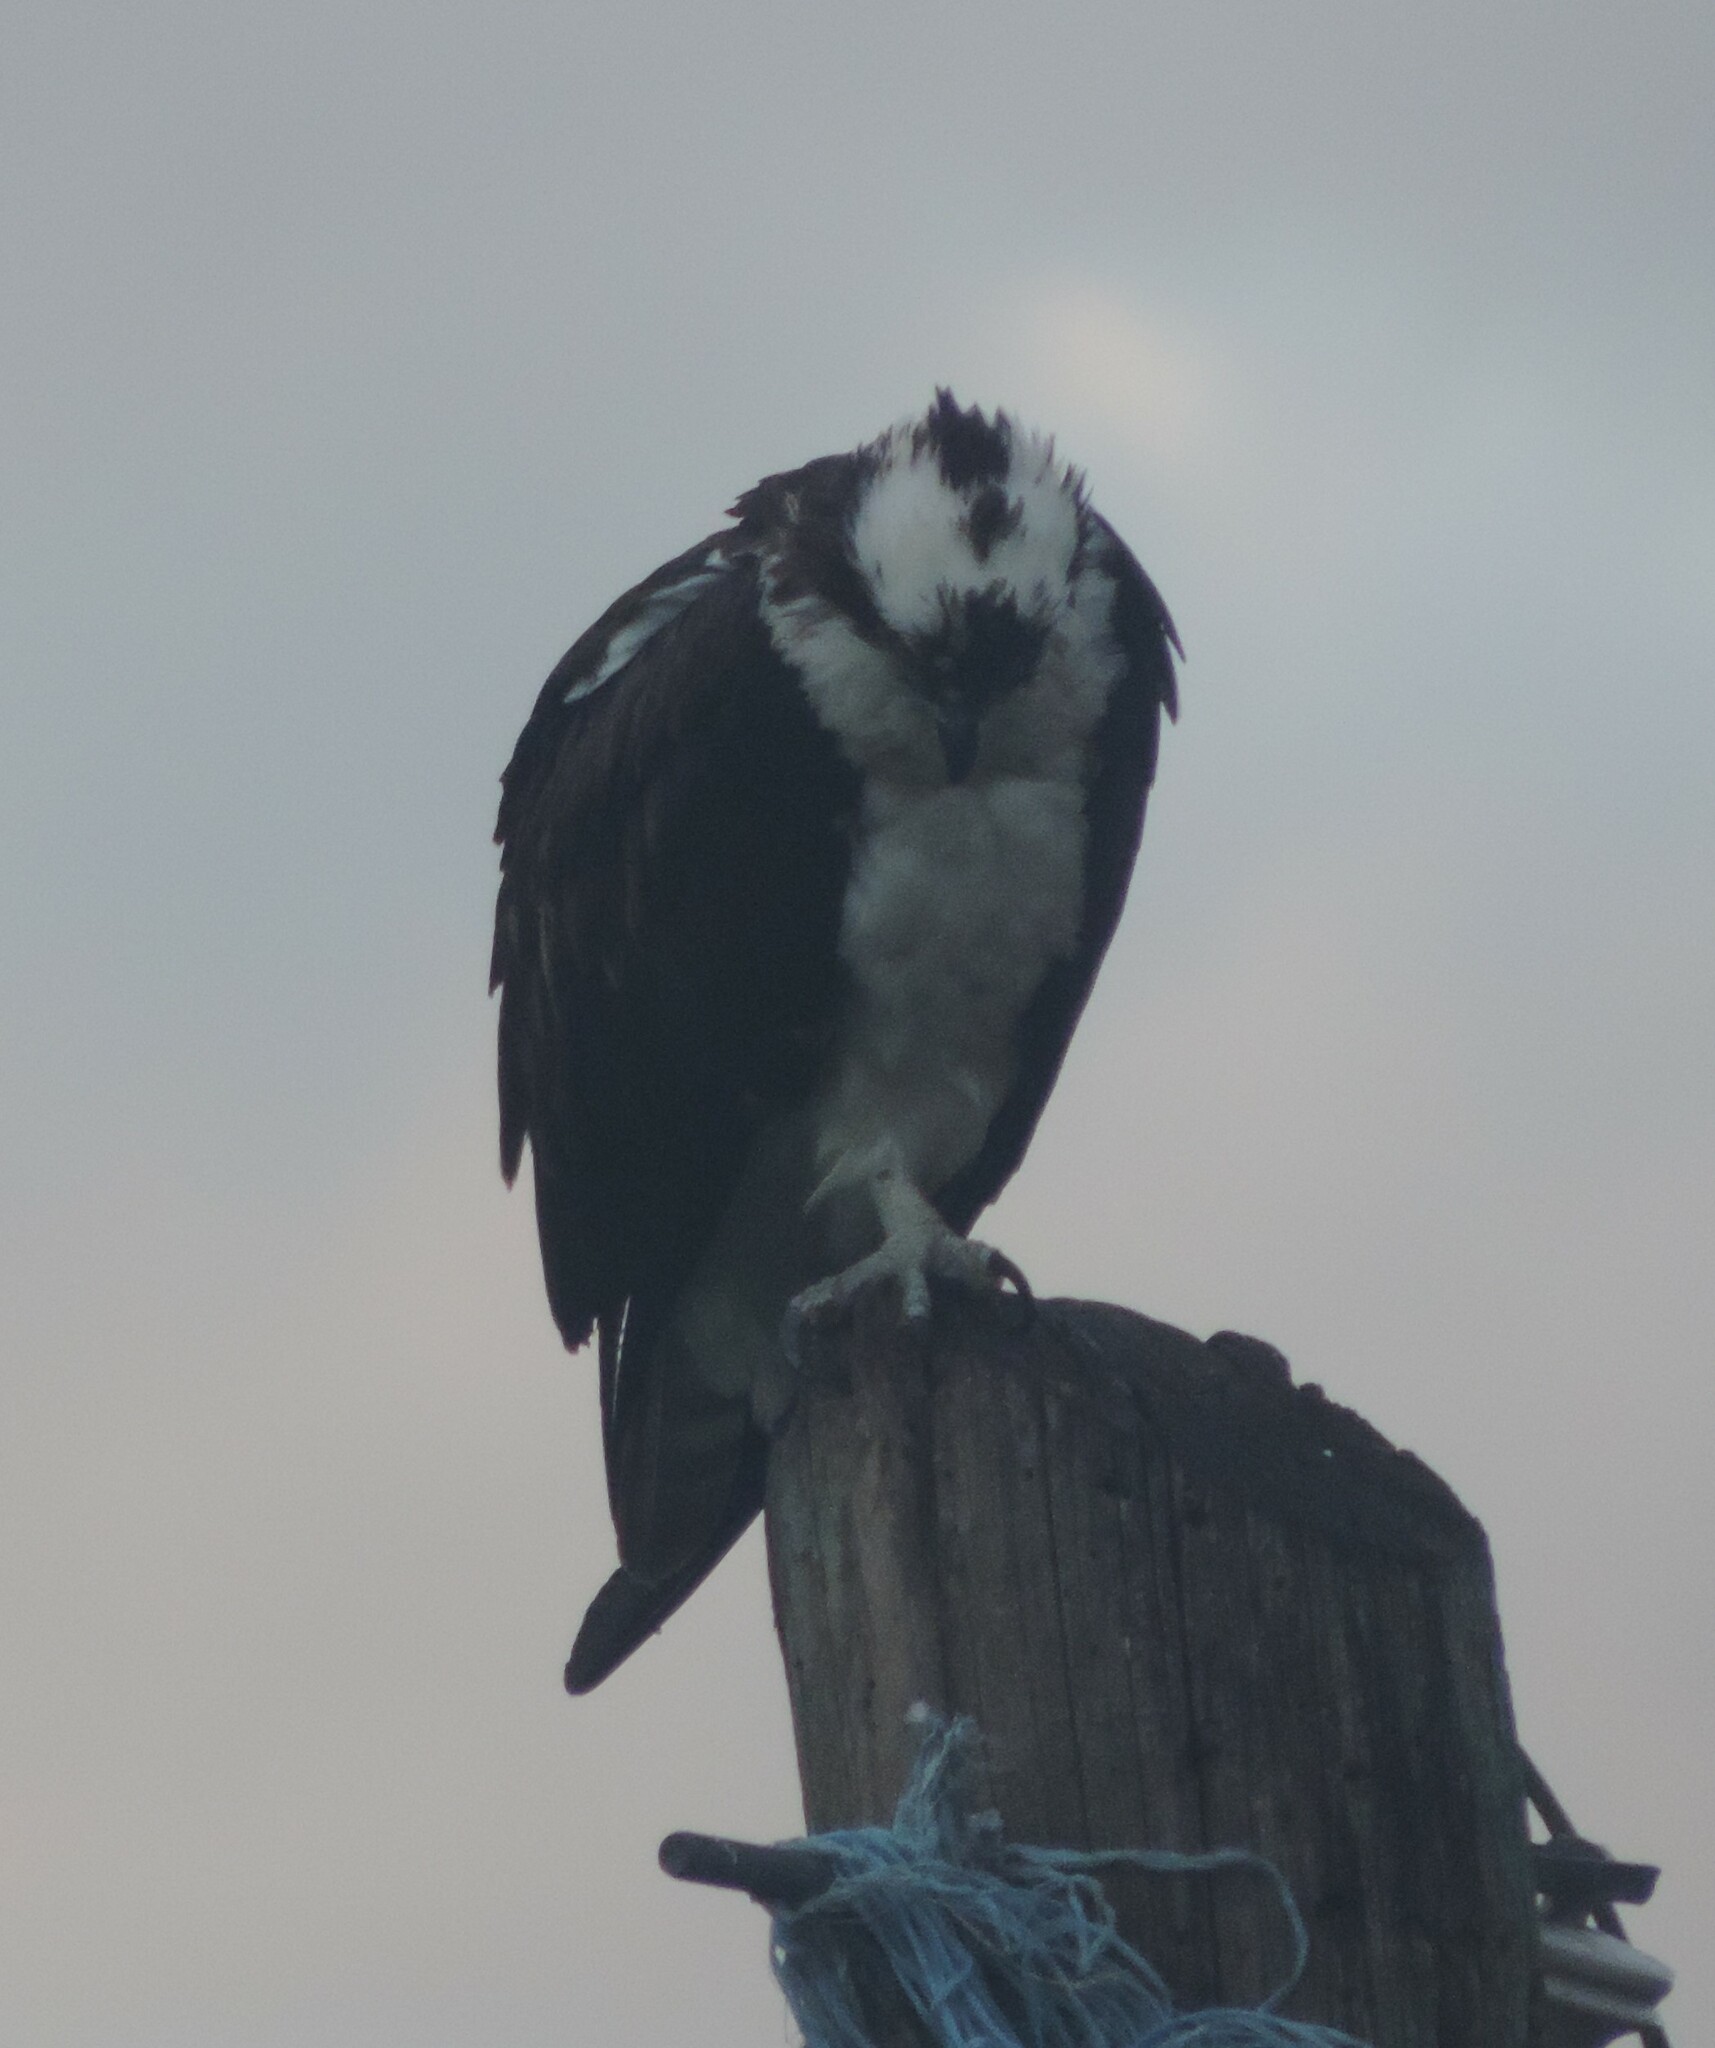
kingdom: Animalia
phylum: Chordata
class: Aves
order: Accipitriformes
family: Pandionidae
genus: Pandion
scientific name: Pandion haliaetus
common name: Osprey
